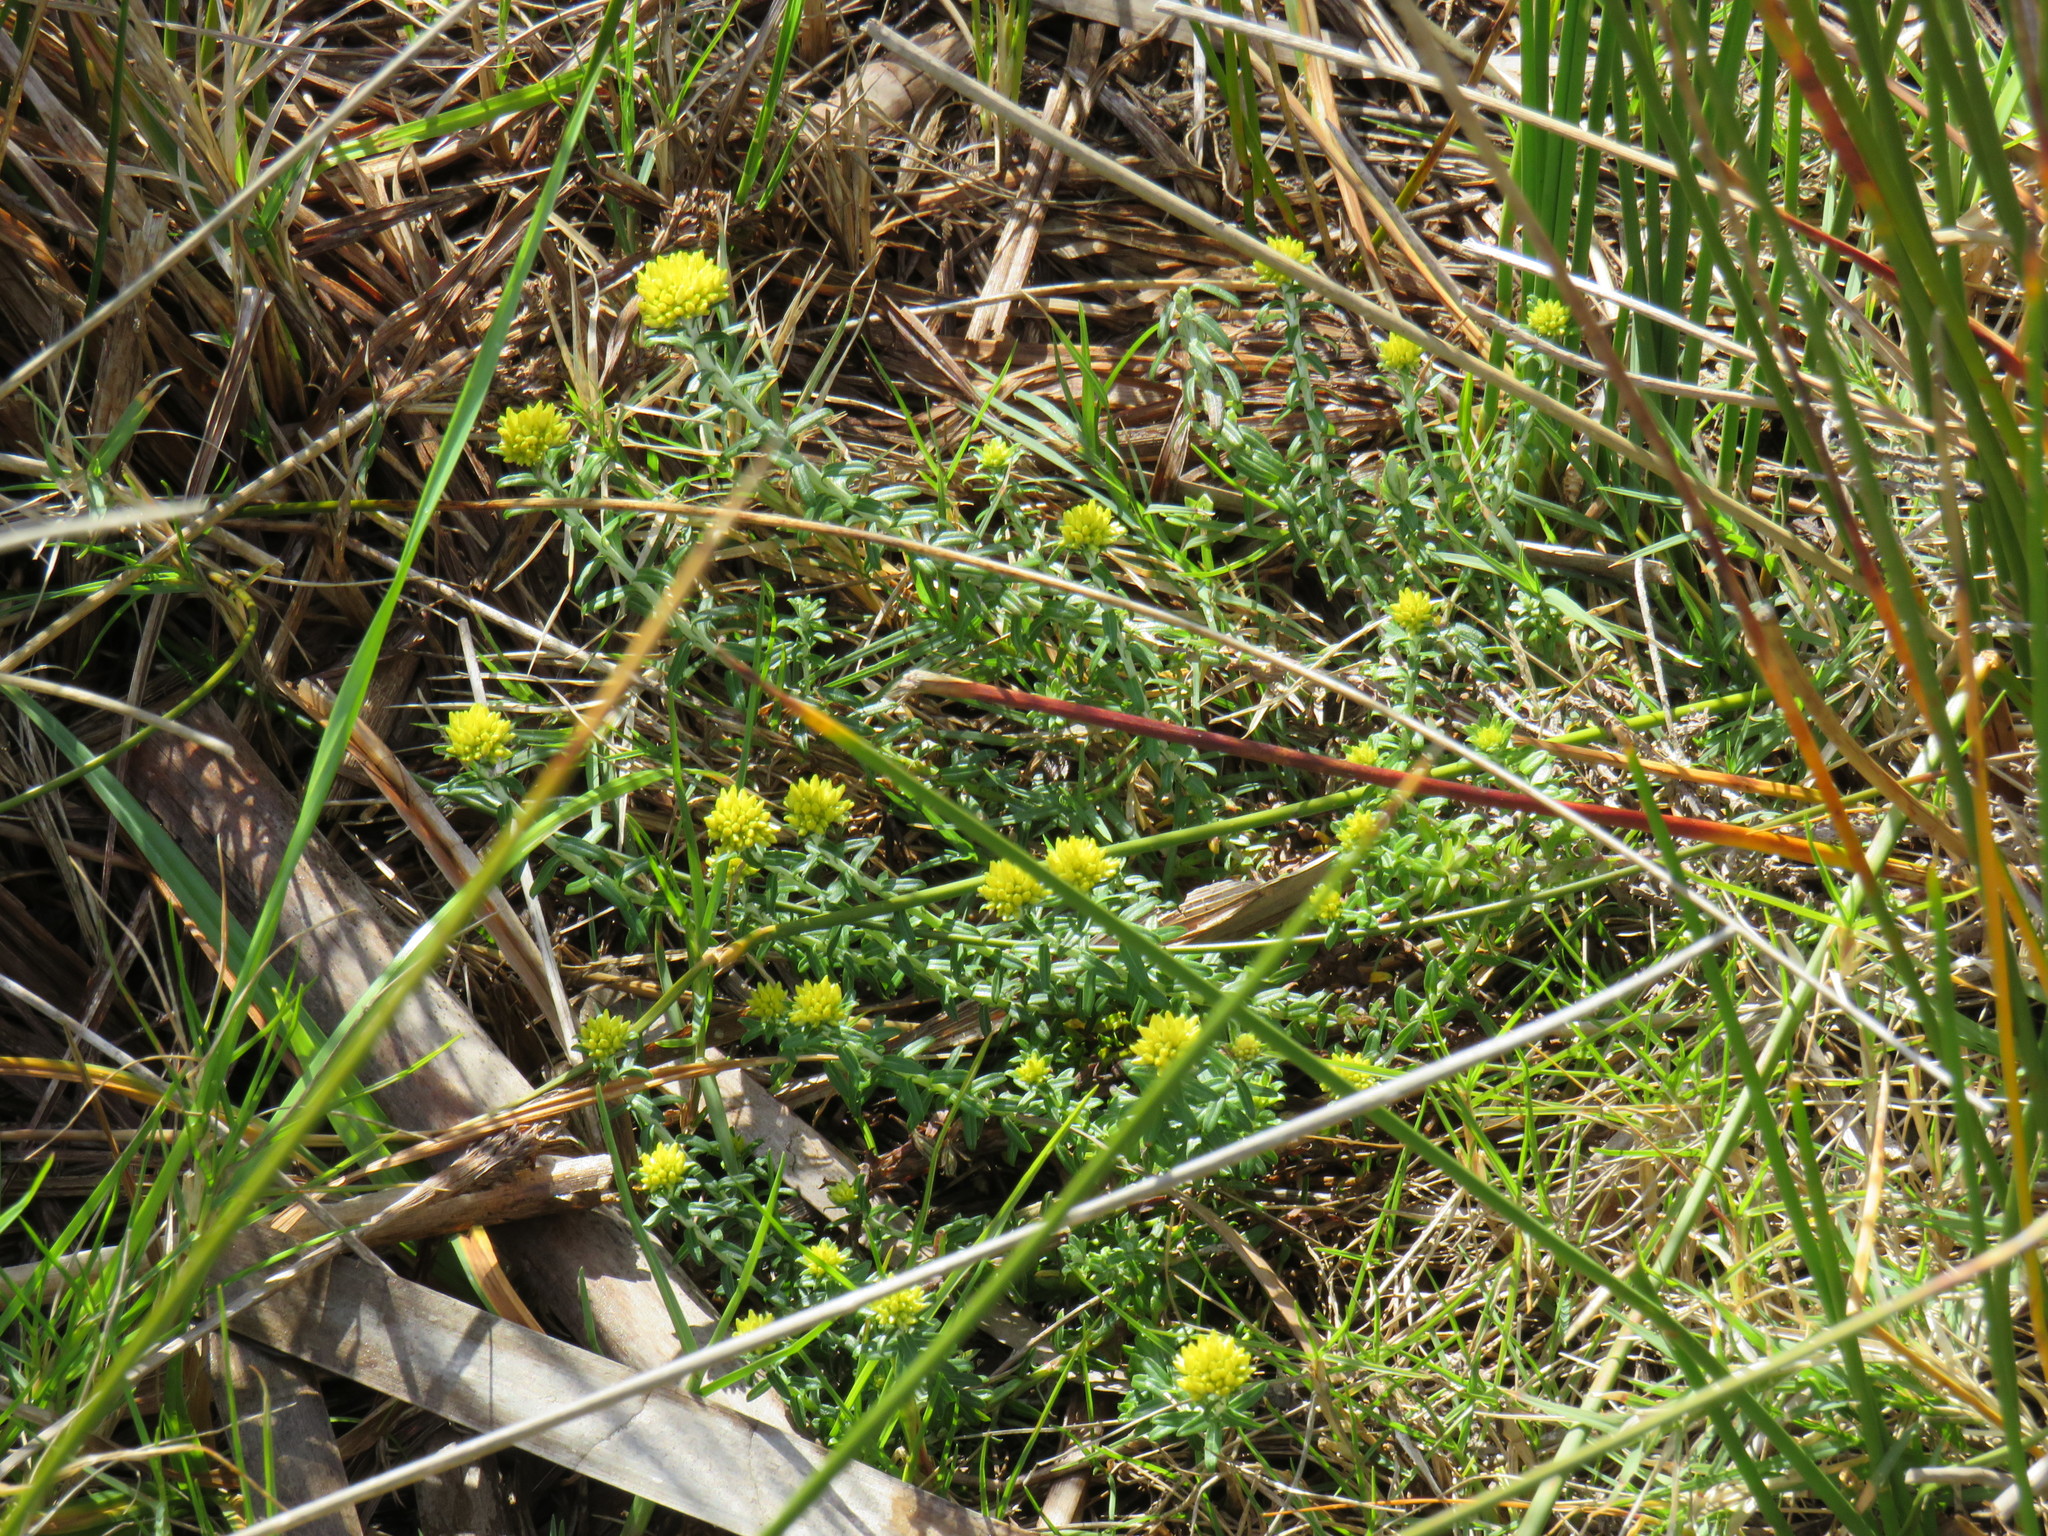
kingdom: Plantae
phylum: Tracheophyta
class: Magnoliopsida
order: Asterales
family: Asteraceae
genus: Helichrysum
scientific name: Helichrysum cymosum
